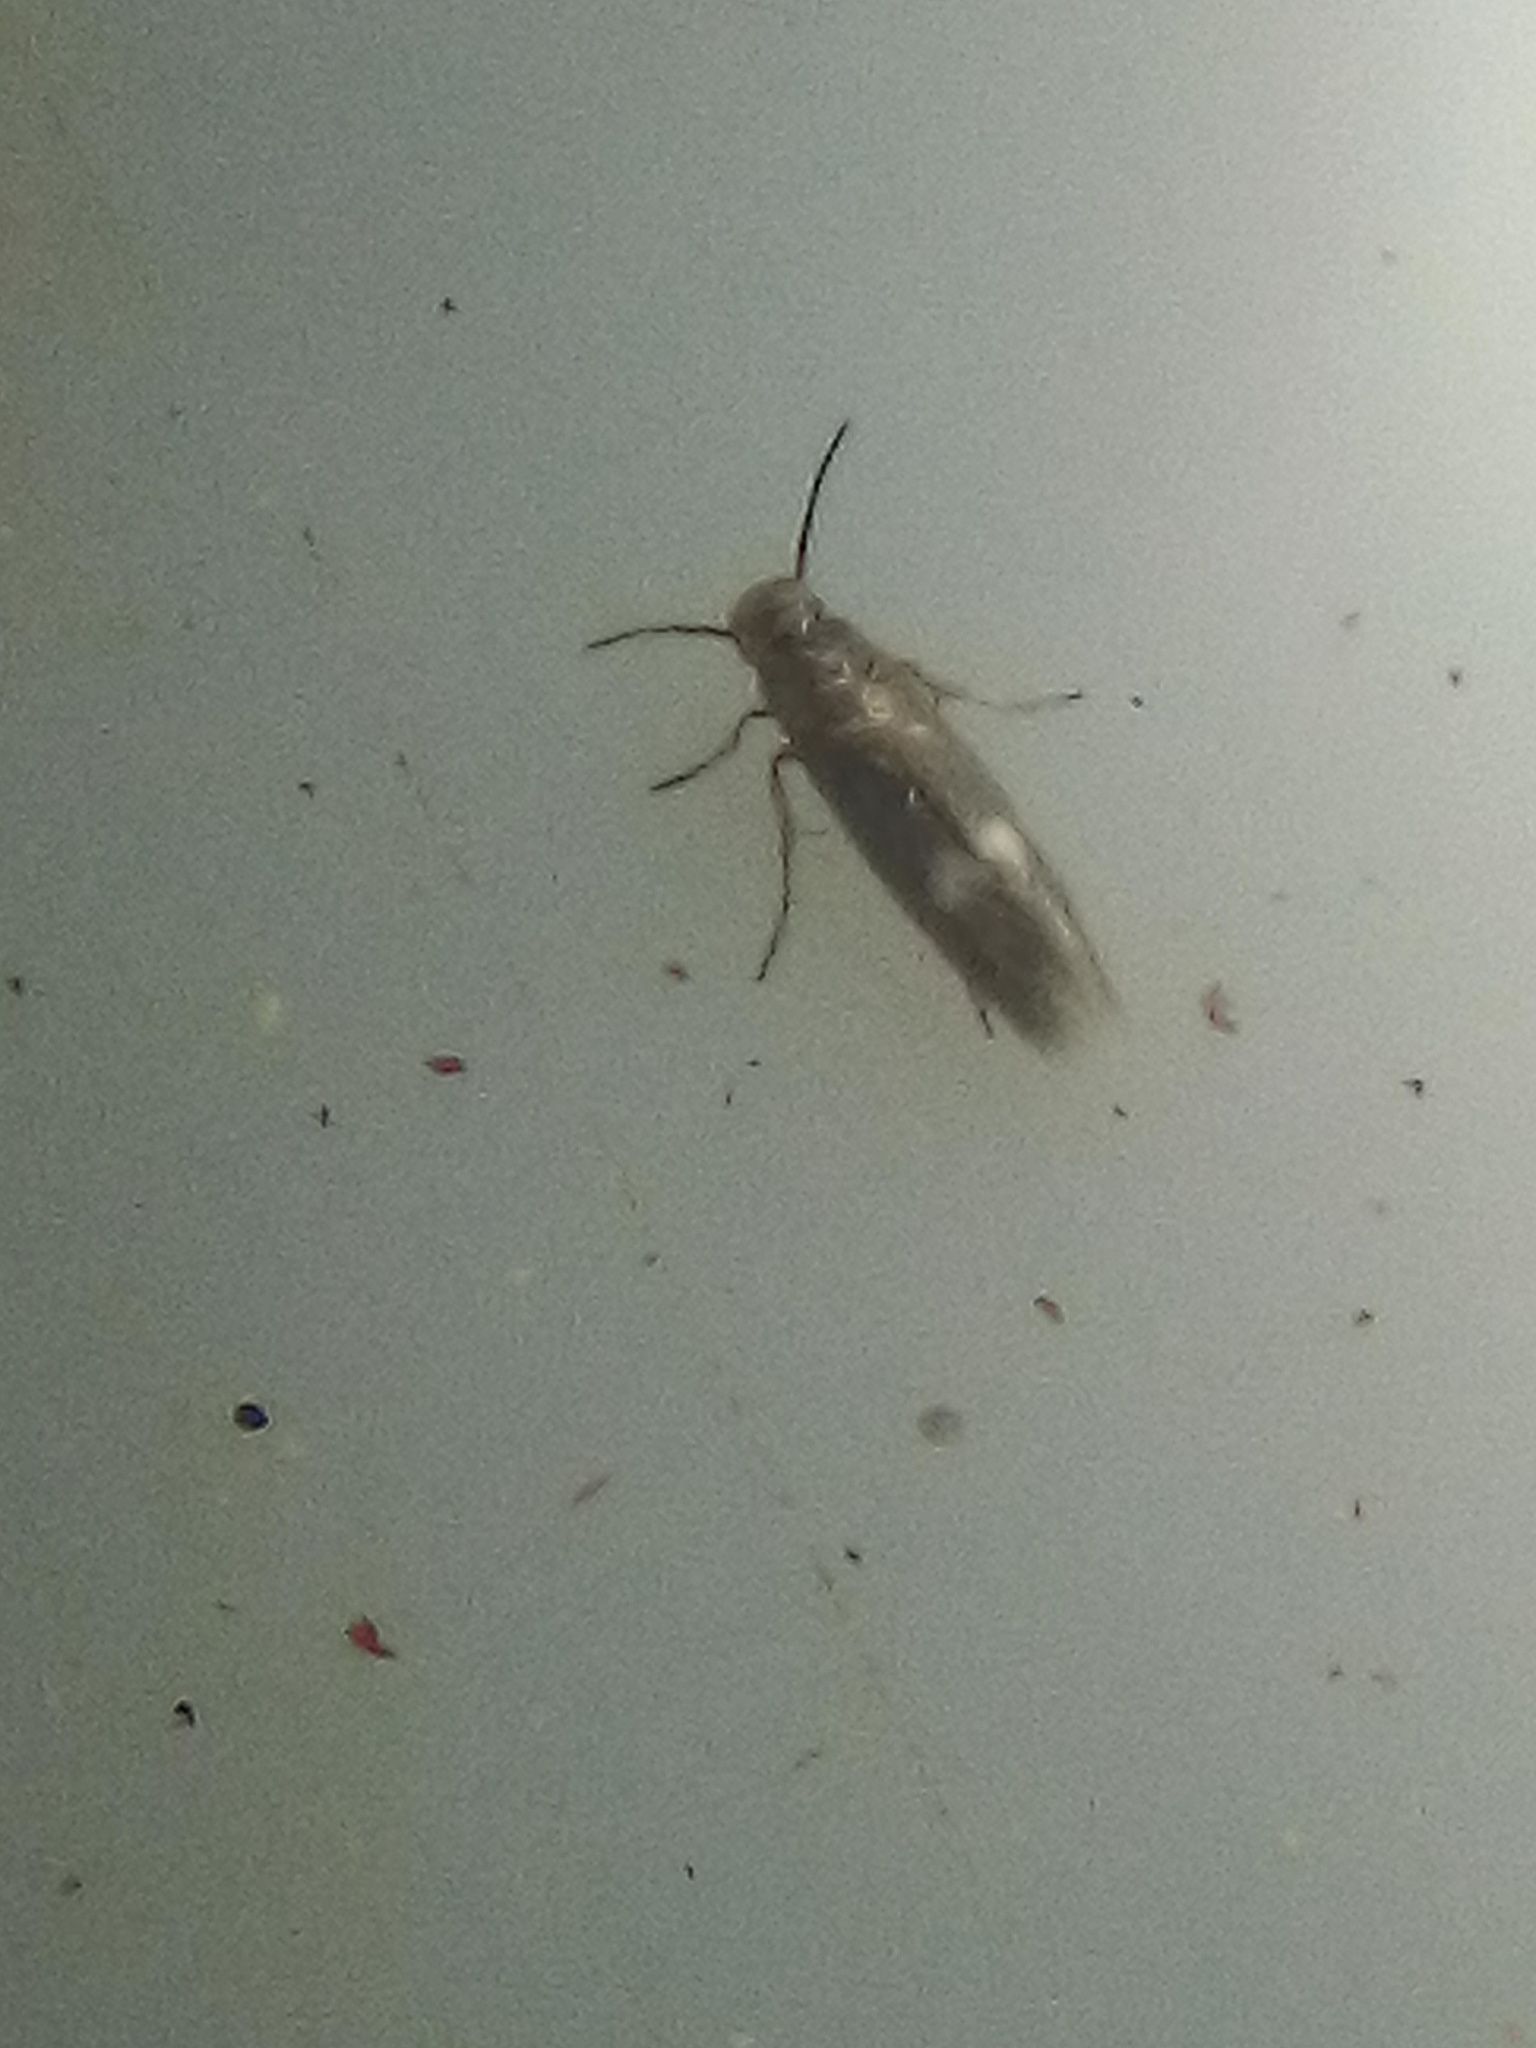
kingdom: Animalia
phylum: Arthropoda
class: Insecta
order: Lepidoptera
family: Heliozelidae
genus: Heliozela
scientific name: Heliozela catoptrias
